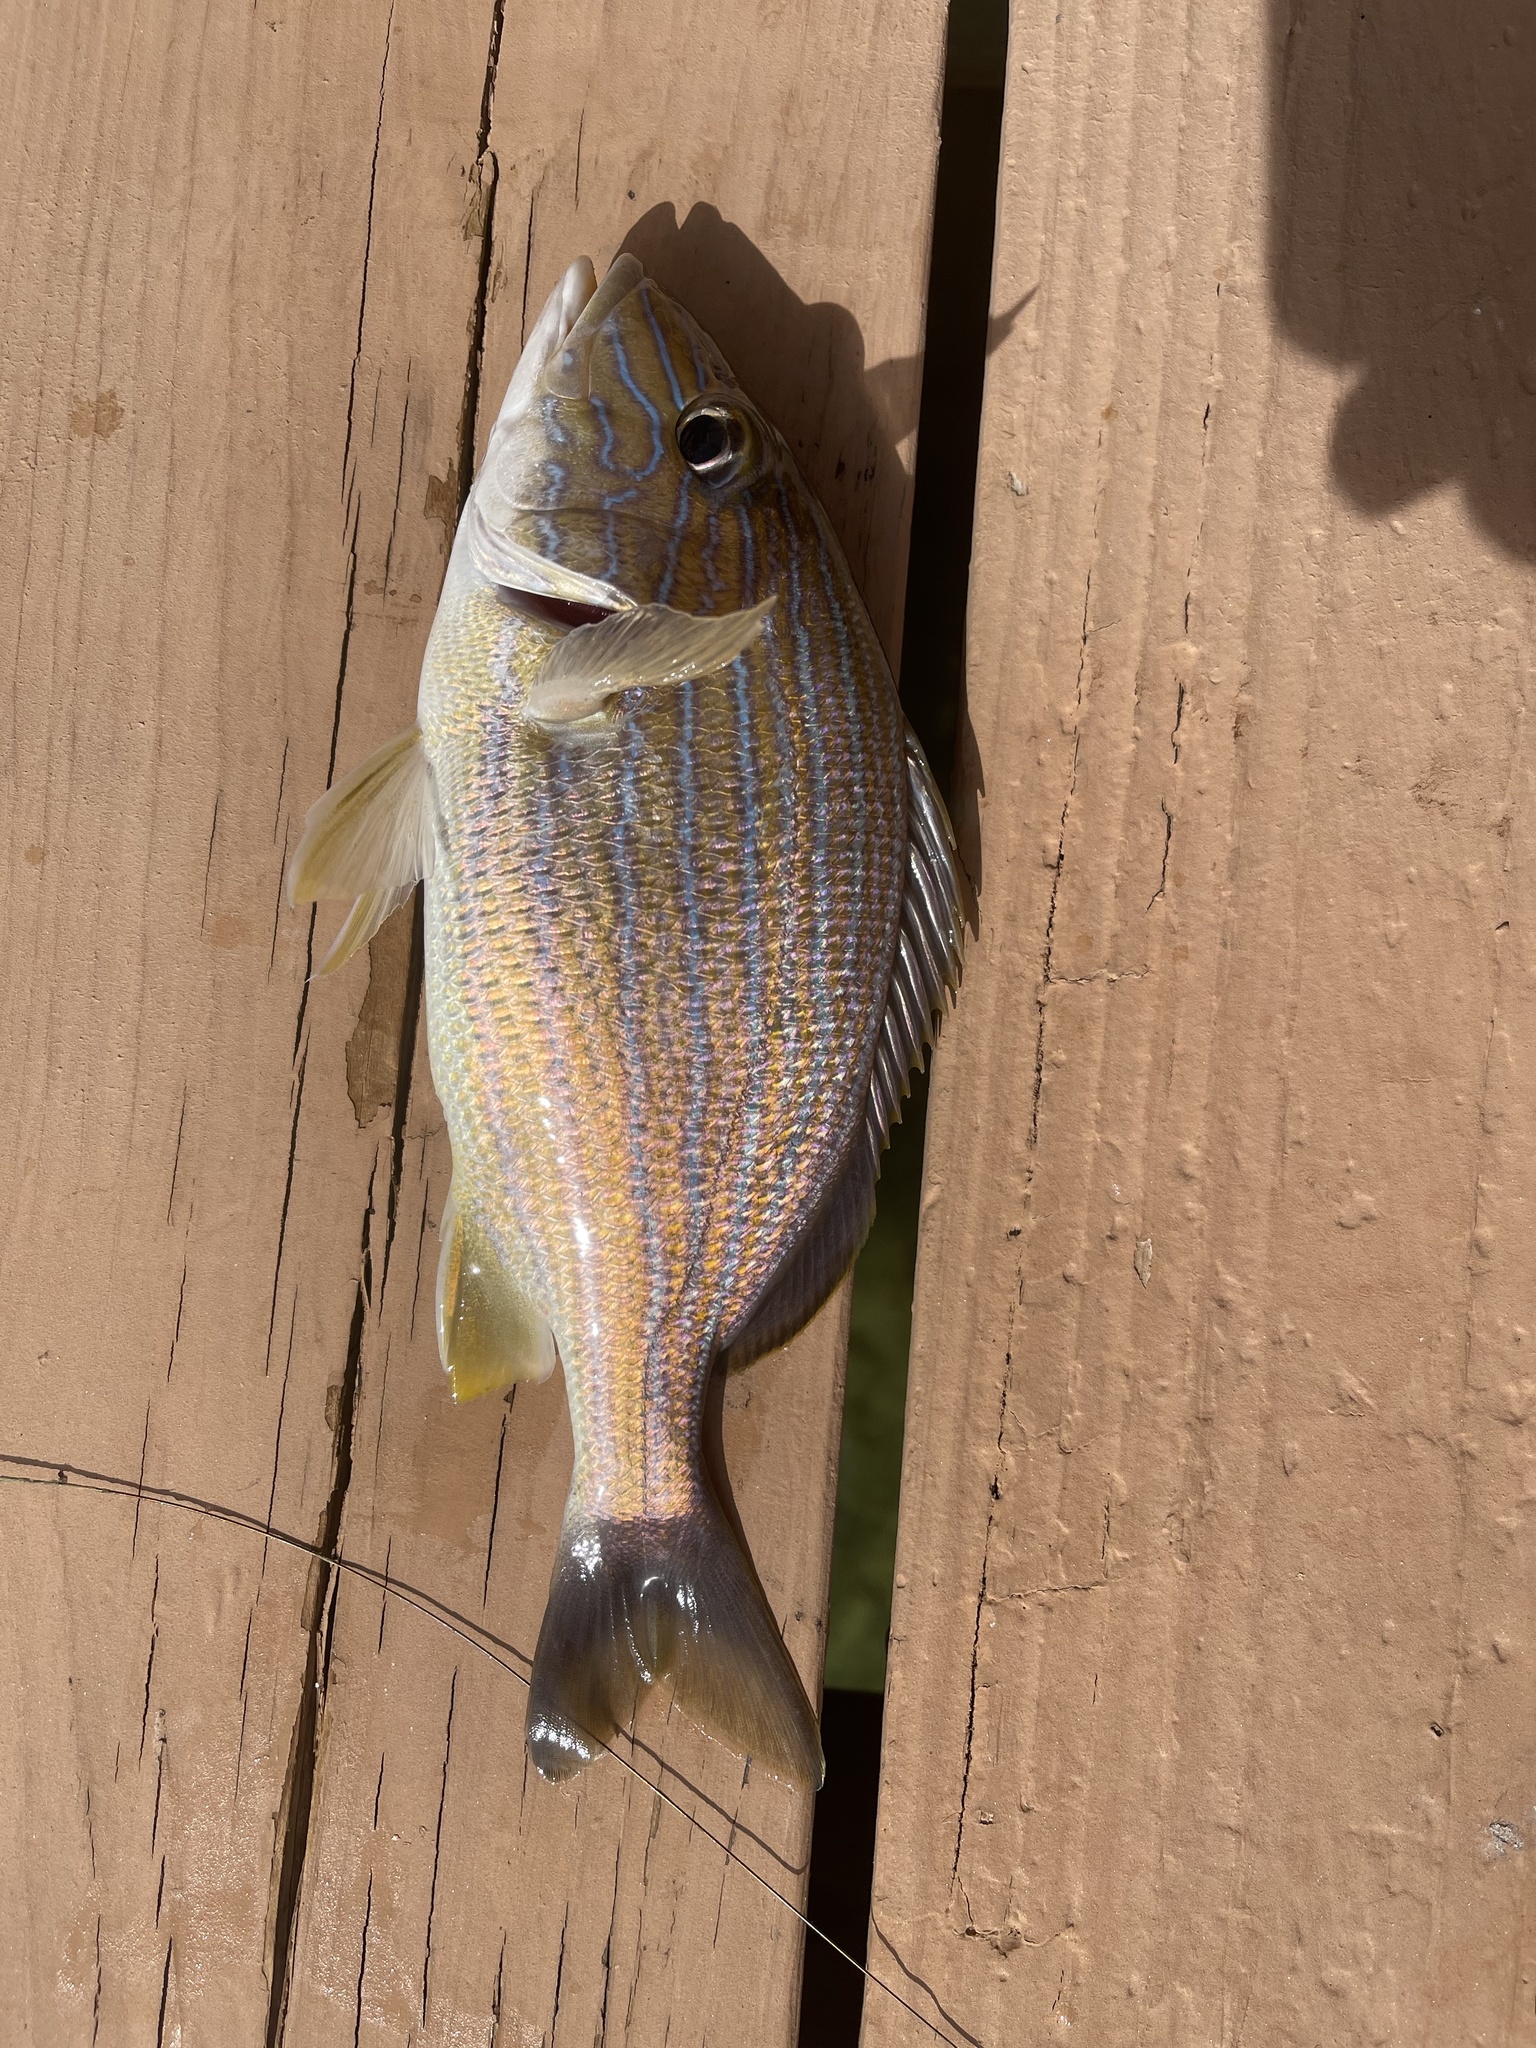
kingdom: Animalia
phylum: Chordata
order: Perciformes
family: Haemulidae
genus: Haemulon
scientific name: Haemulon sciurus
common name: Bluestriped grunt
